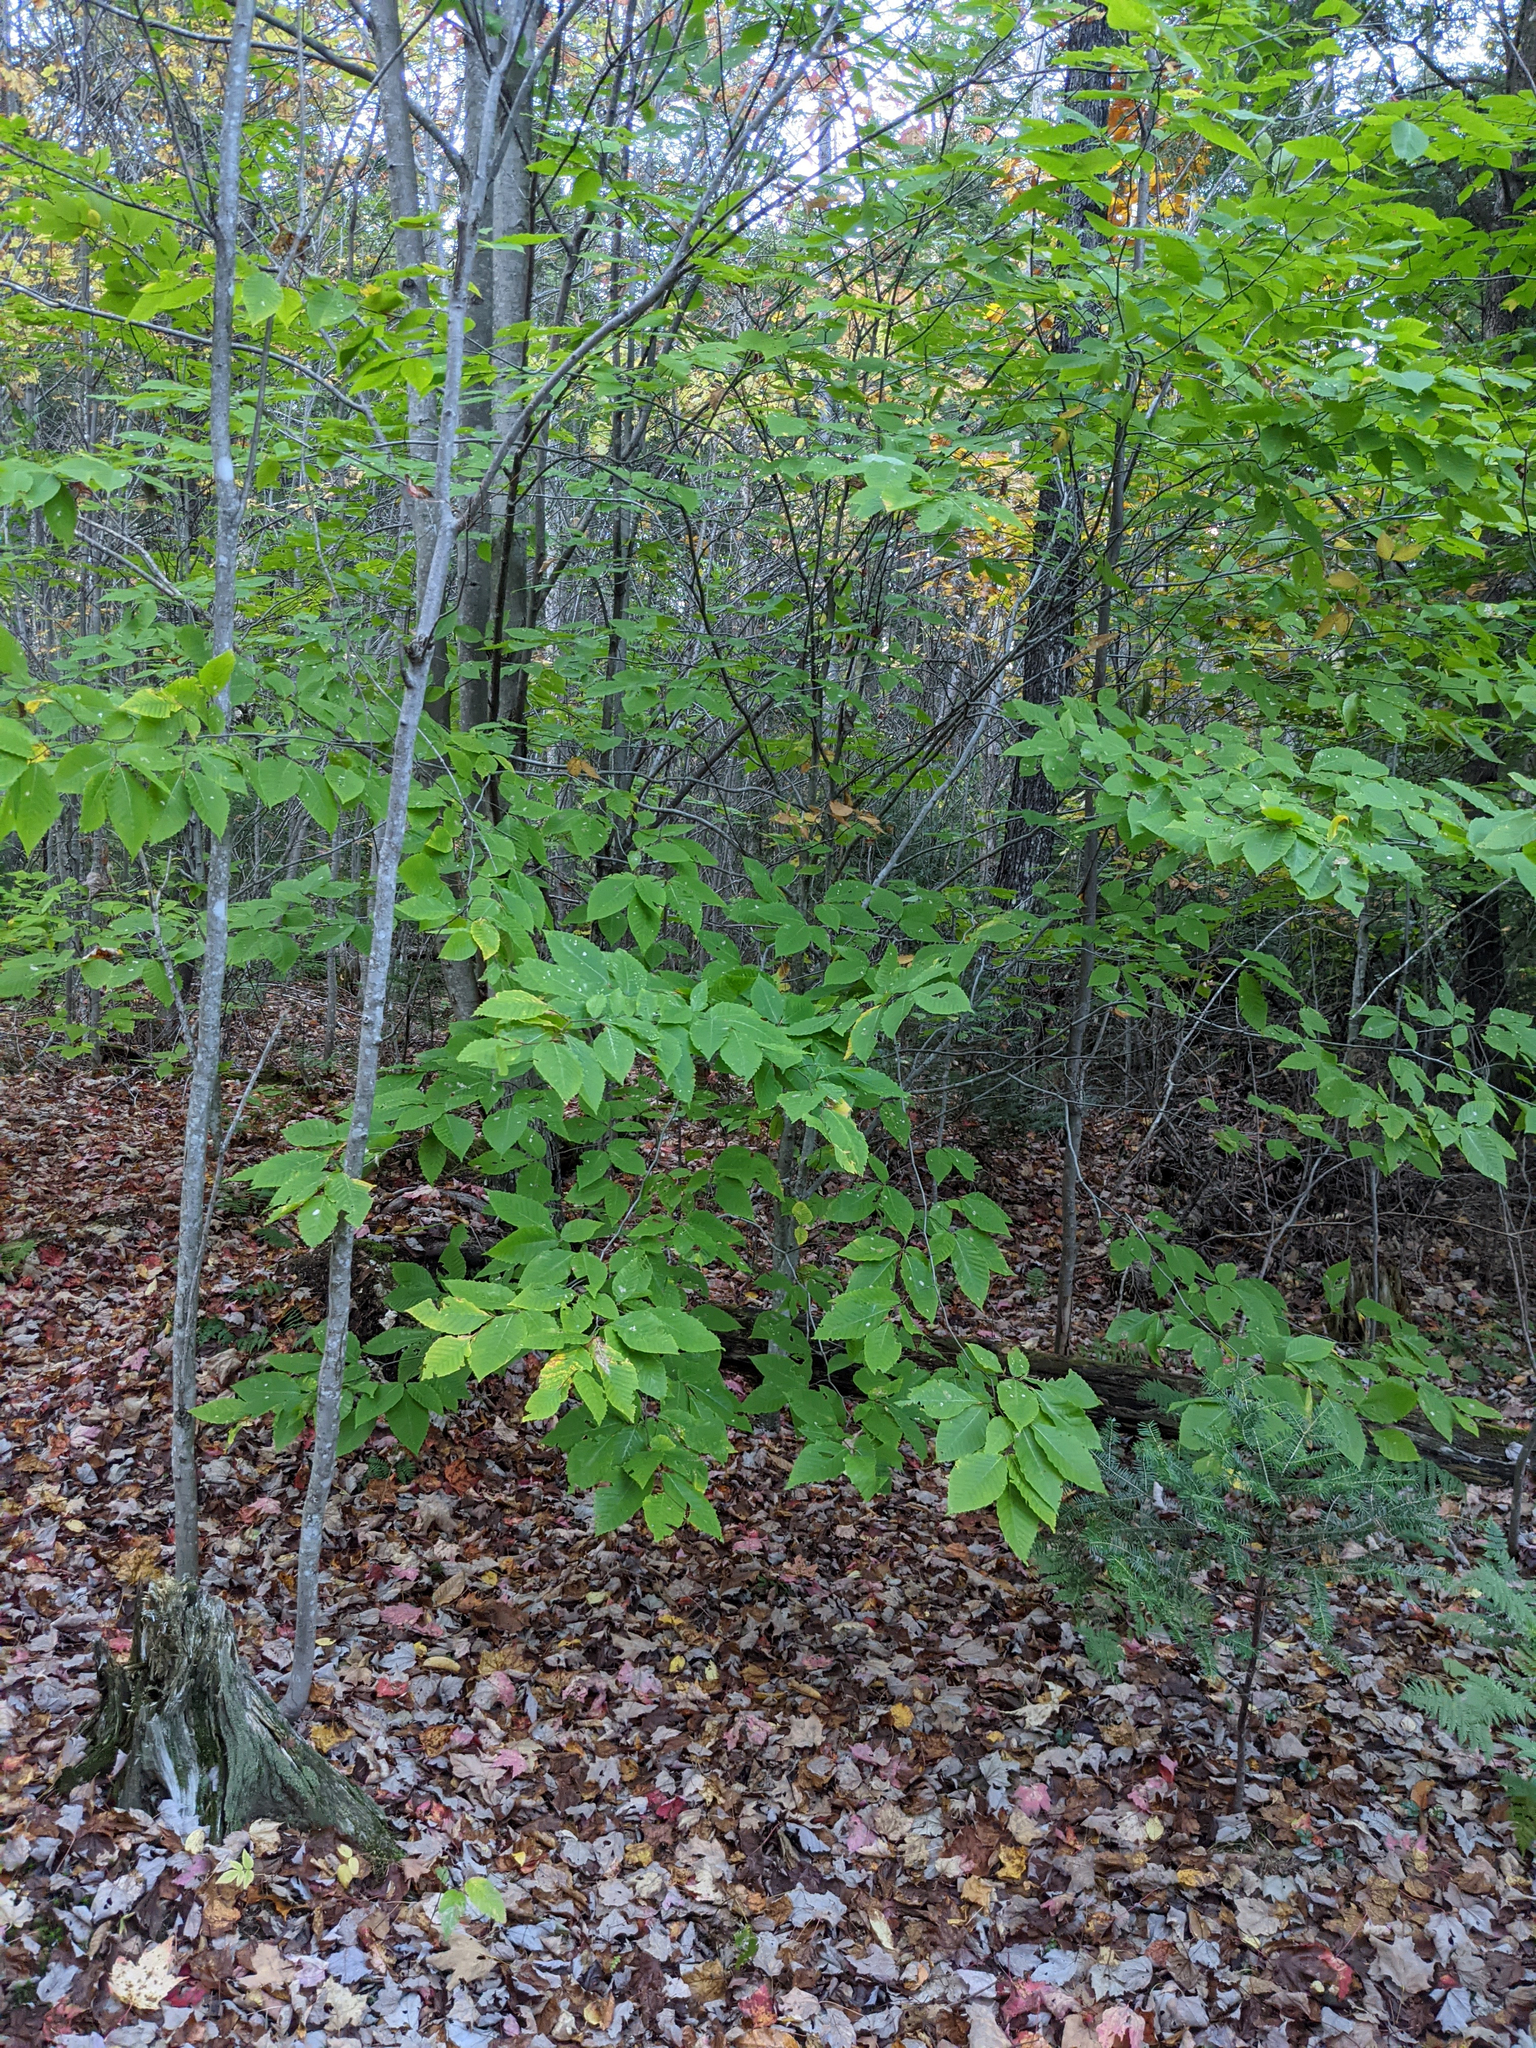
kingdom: Plantae
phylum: Tracheophyta
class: Magnoliopsida
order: Fagales
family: Fagaceae
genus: Fagus
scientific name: Fagus grandifolia
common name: American beech
